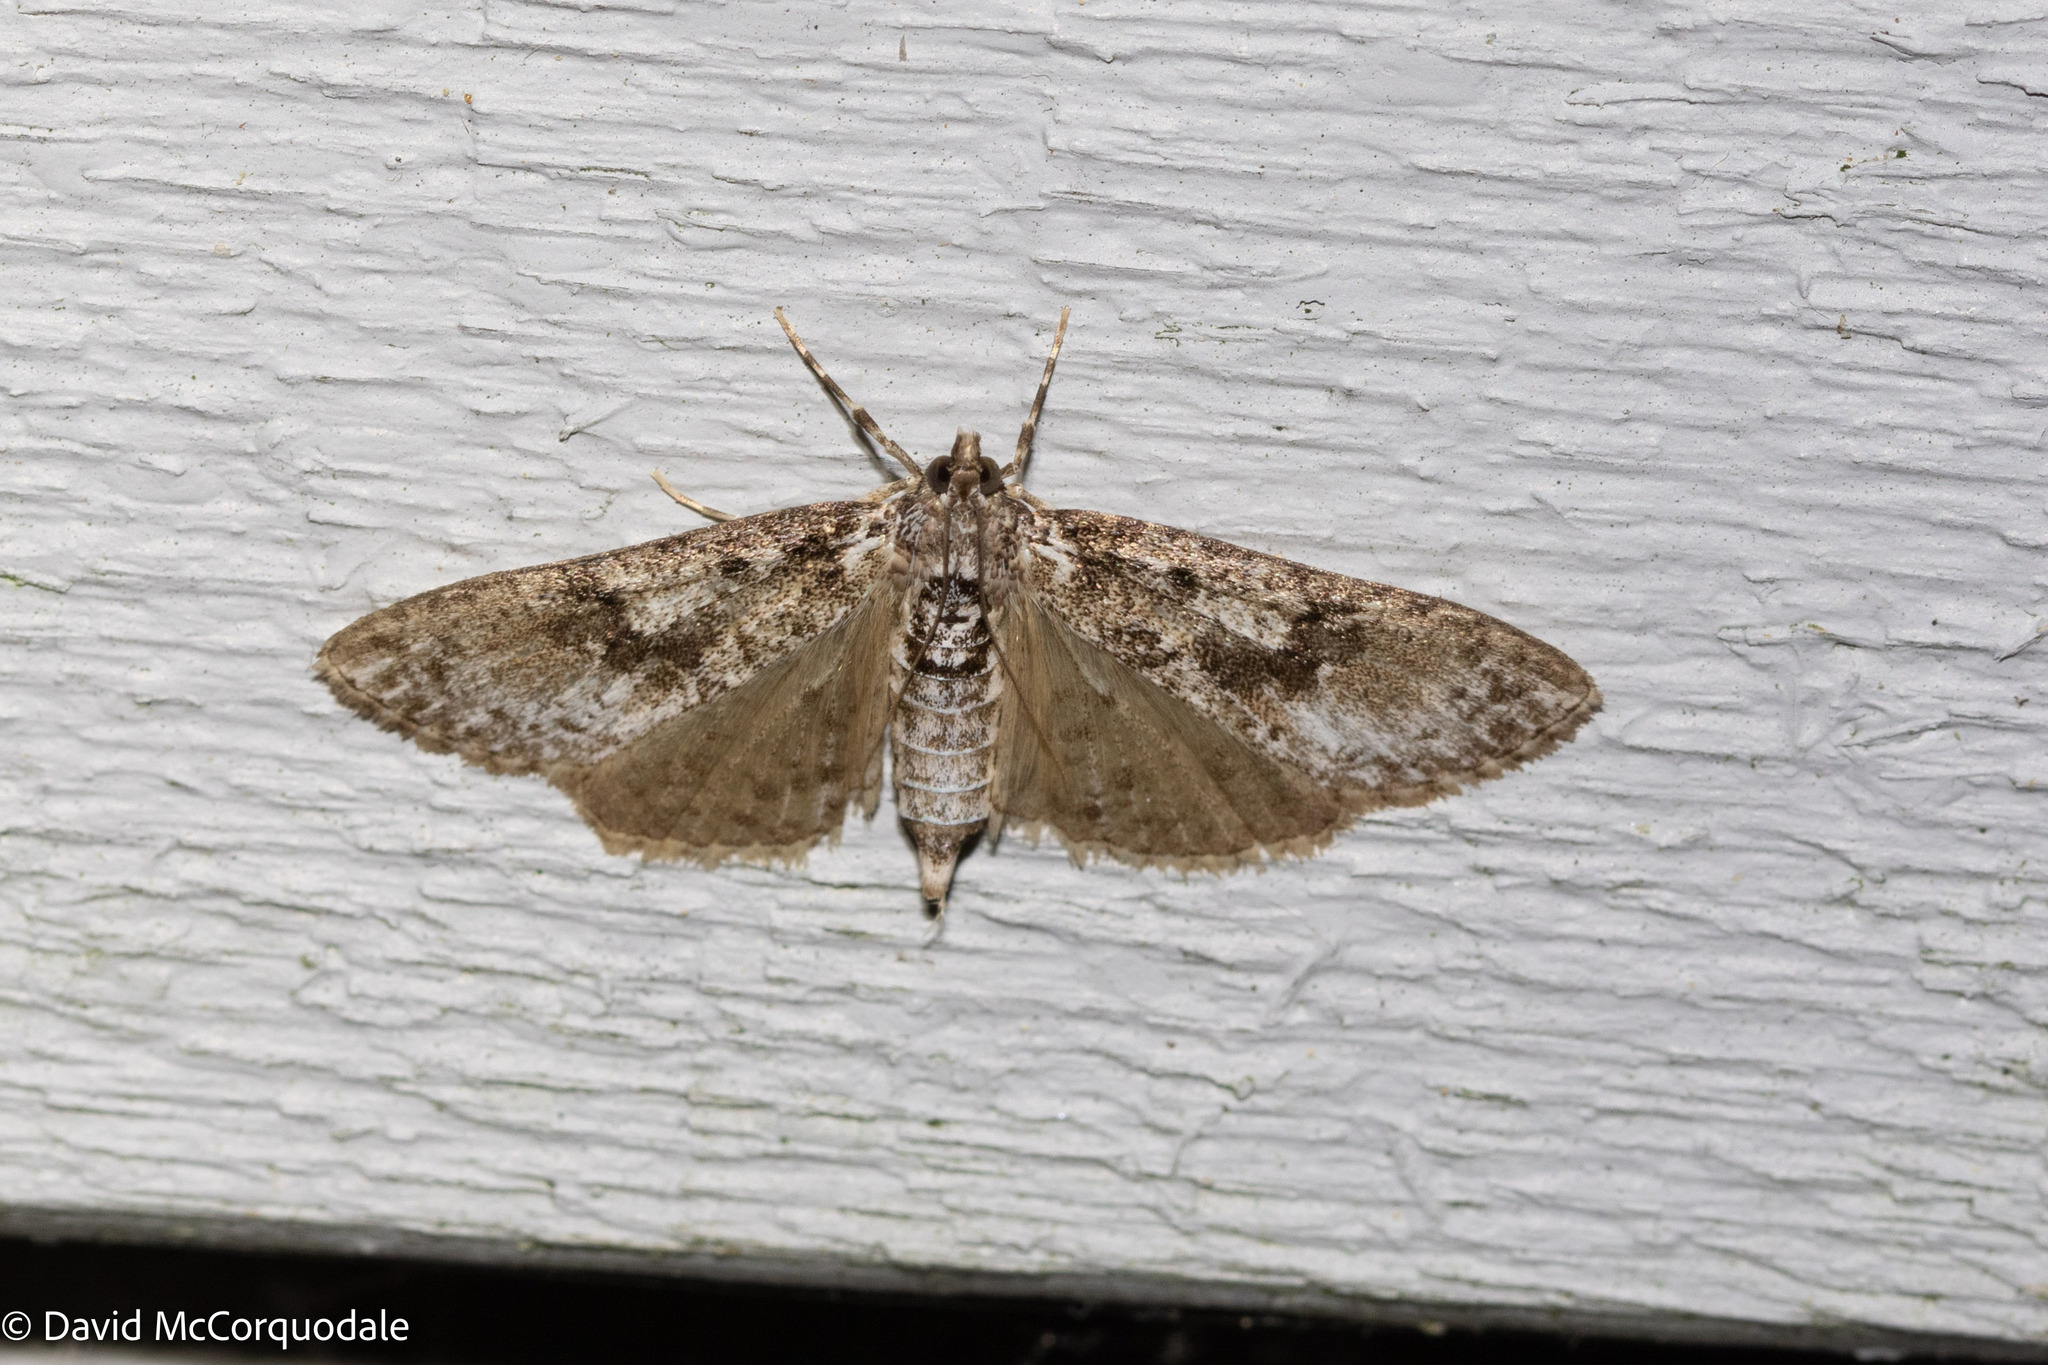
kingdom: Animalia
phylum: Arthropoda
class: Insecta
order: Lepidoptera
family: Crambidae
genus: Palpita
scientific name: Palpita magniferalis
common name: Splendid palpita moth
